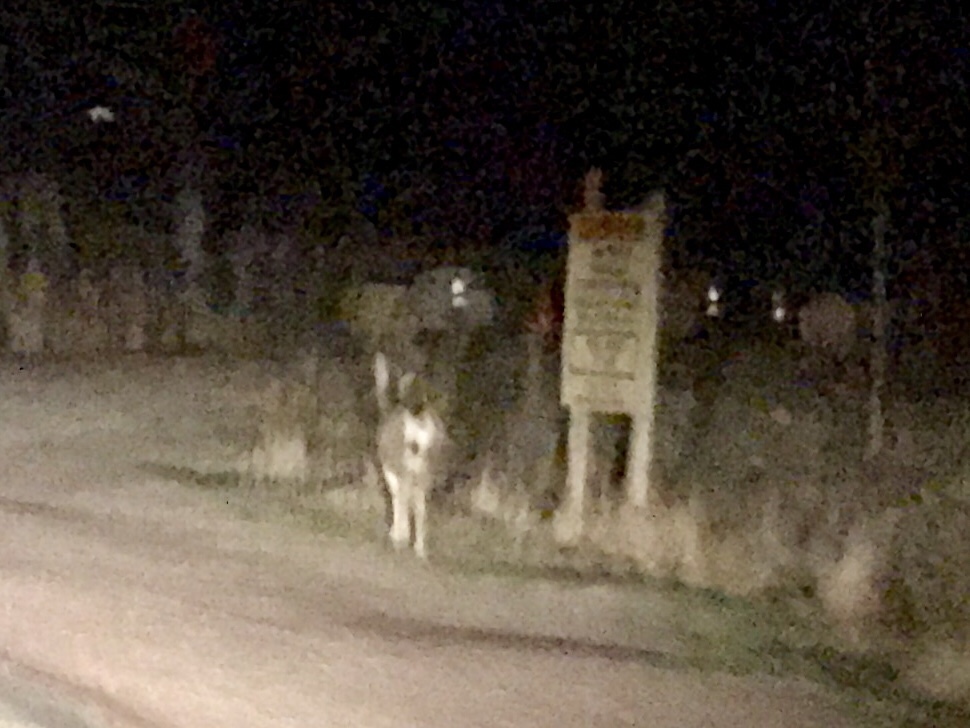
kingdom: Animalia
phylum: Chordata
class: Mammalia
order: Artiodactyla
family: Cervidae
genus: Odocoileus
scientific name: Odocoileus hemionus
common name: Mule deer
